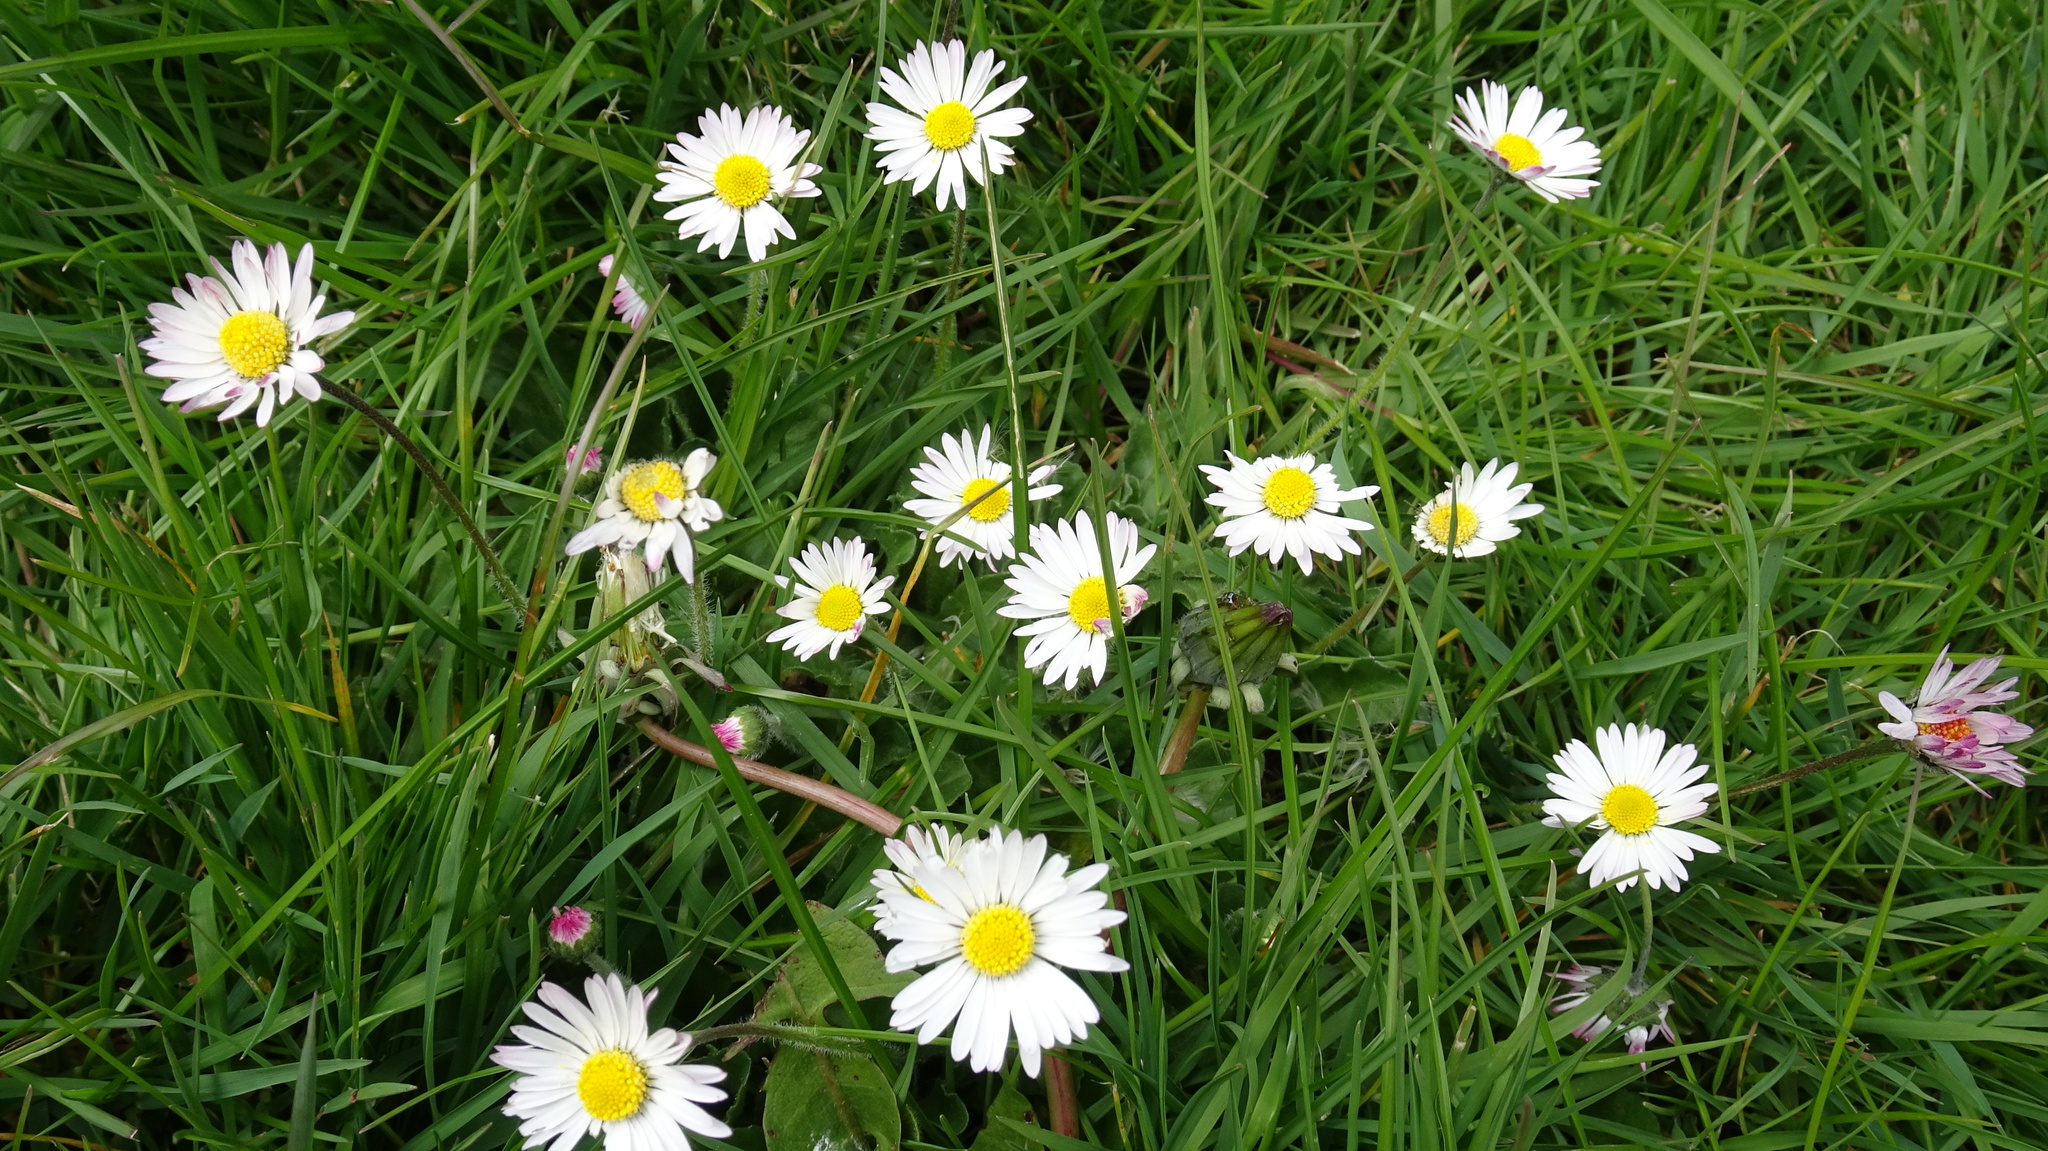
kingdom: Plantae
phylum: Tracheophyta
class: Magnoliopsida
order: Asterales
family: Asteraceae
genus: Bellis
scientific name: Bellis perennis
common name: Lawndaisy
